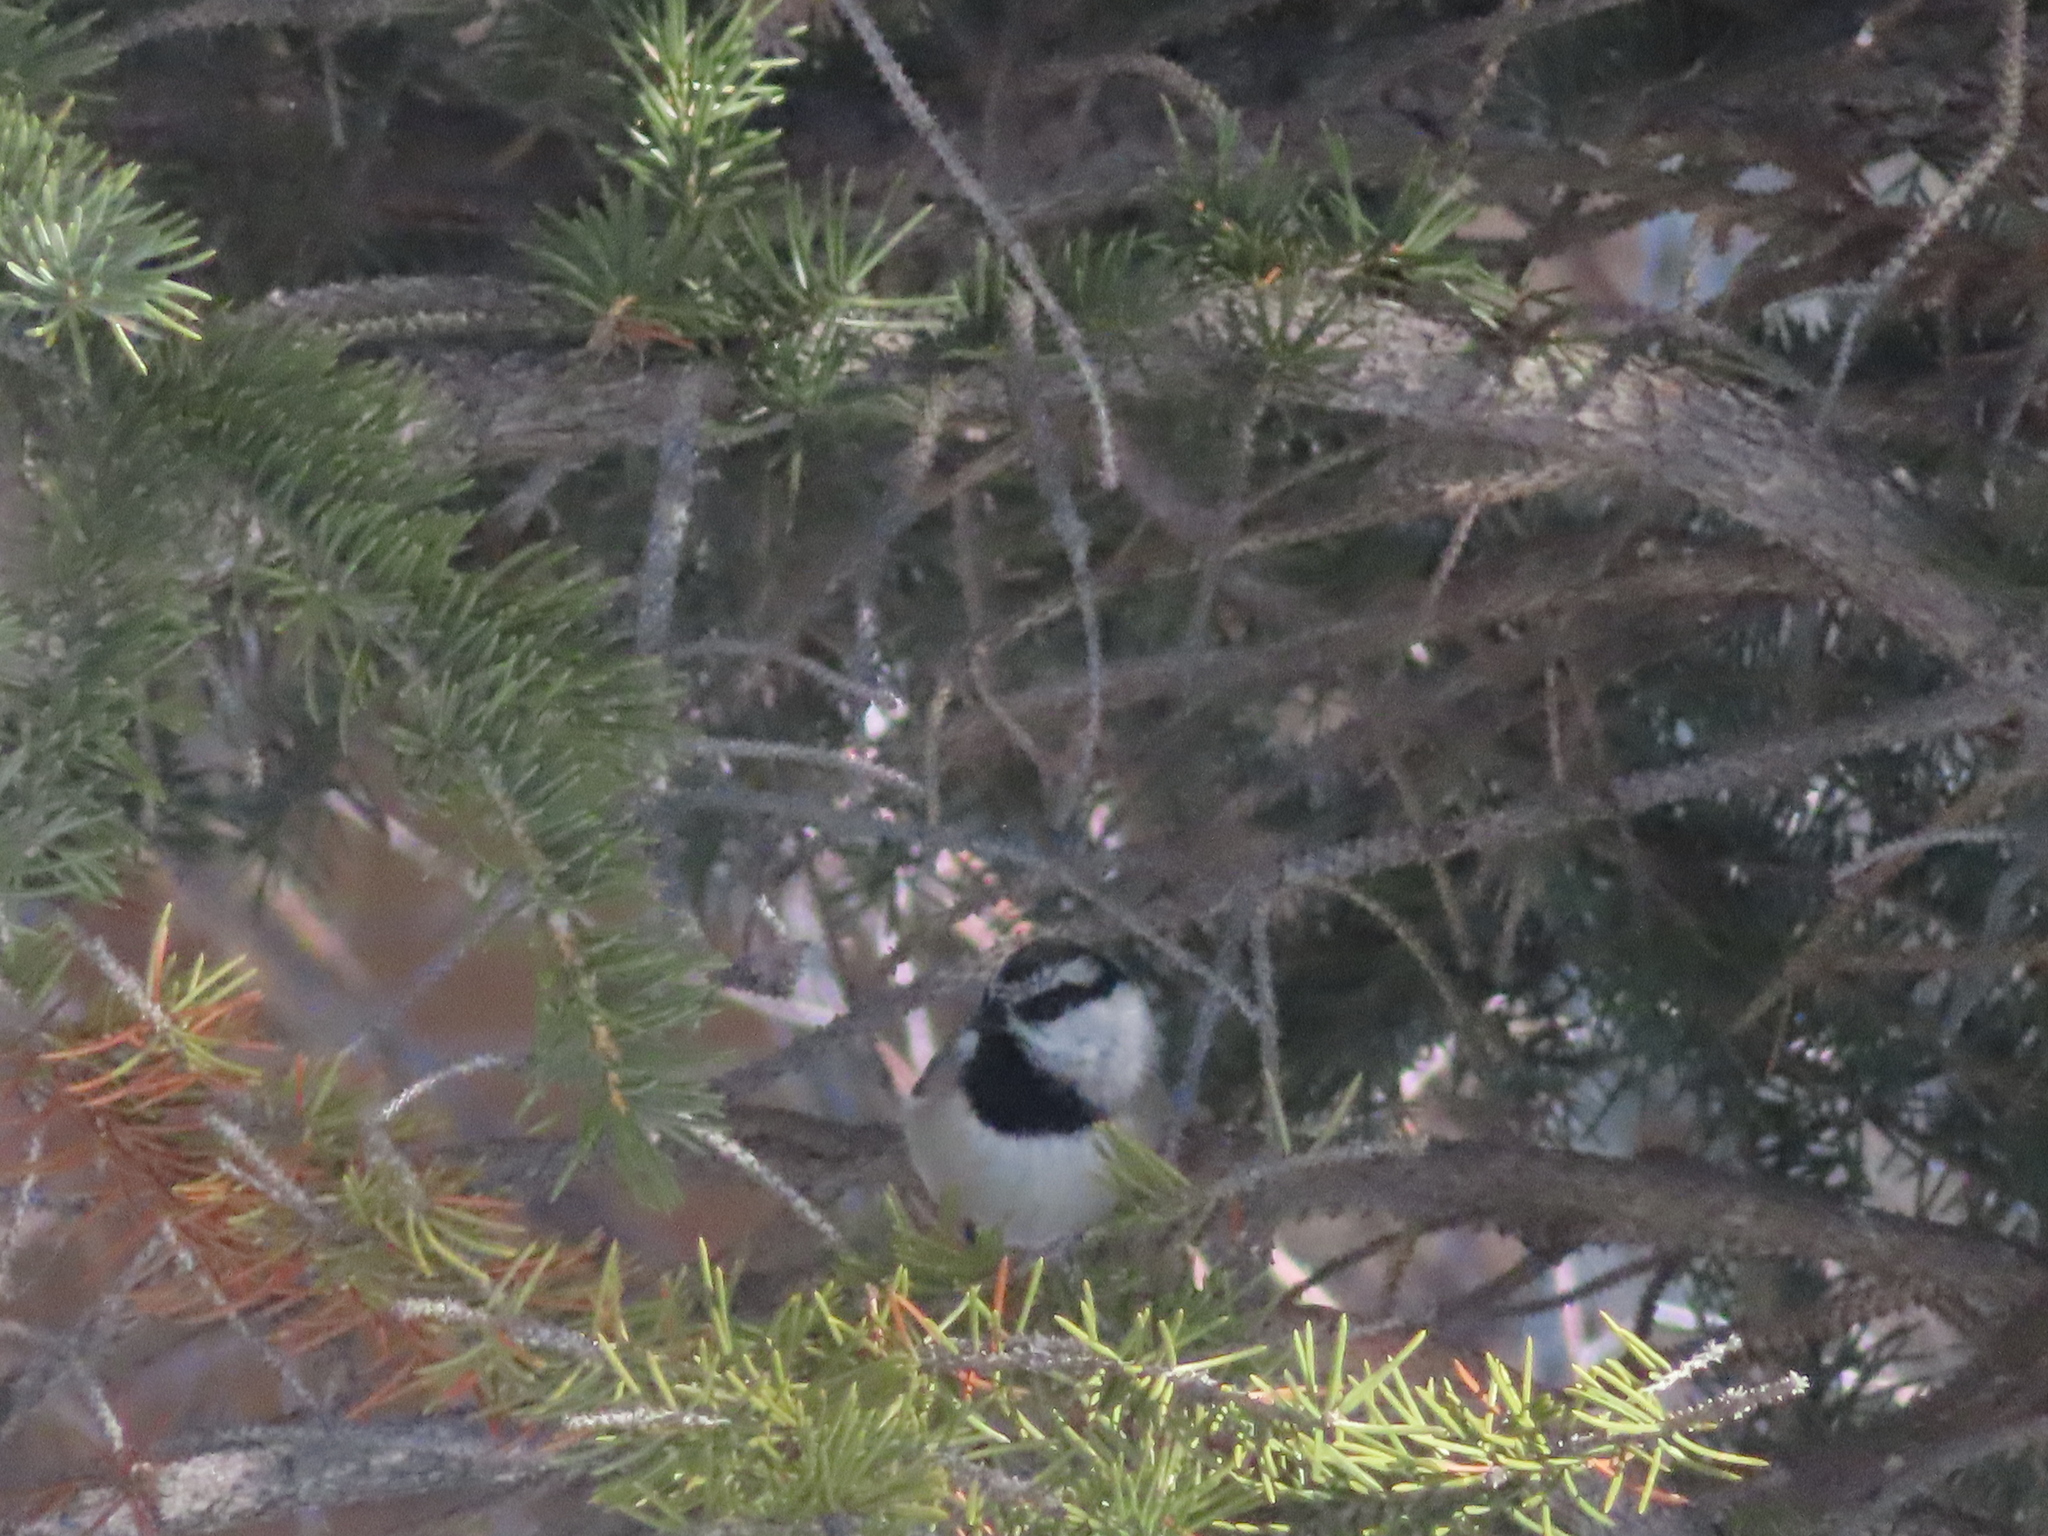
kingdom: Animalia
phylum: Chordata
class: Aves
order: Passeriformes
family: Paridae
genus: Poecile
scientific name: Poecile gambeli
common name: Mountain chickadee
